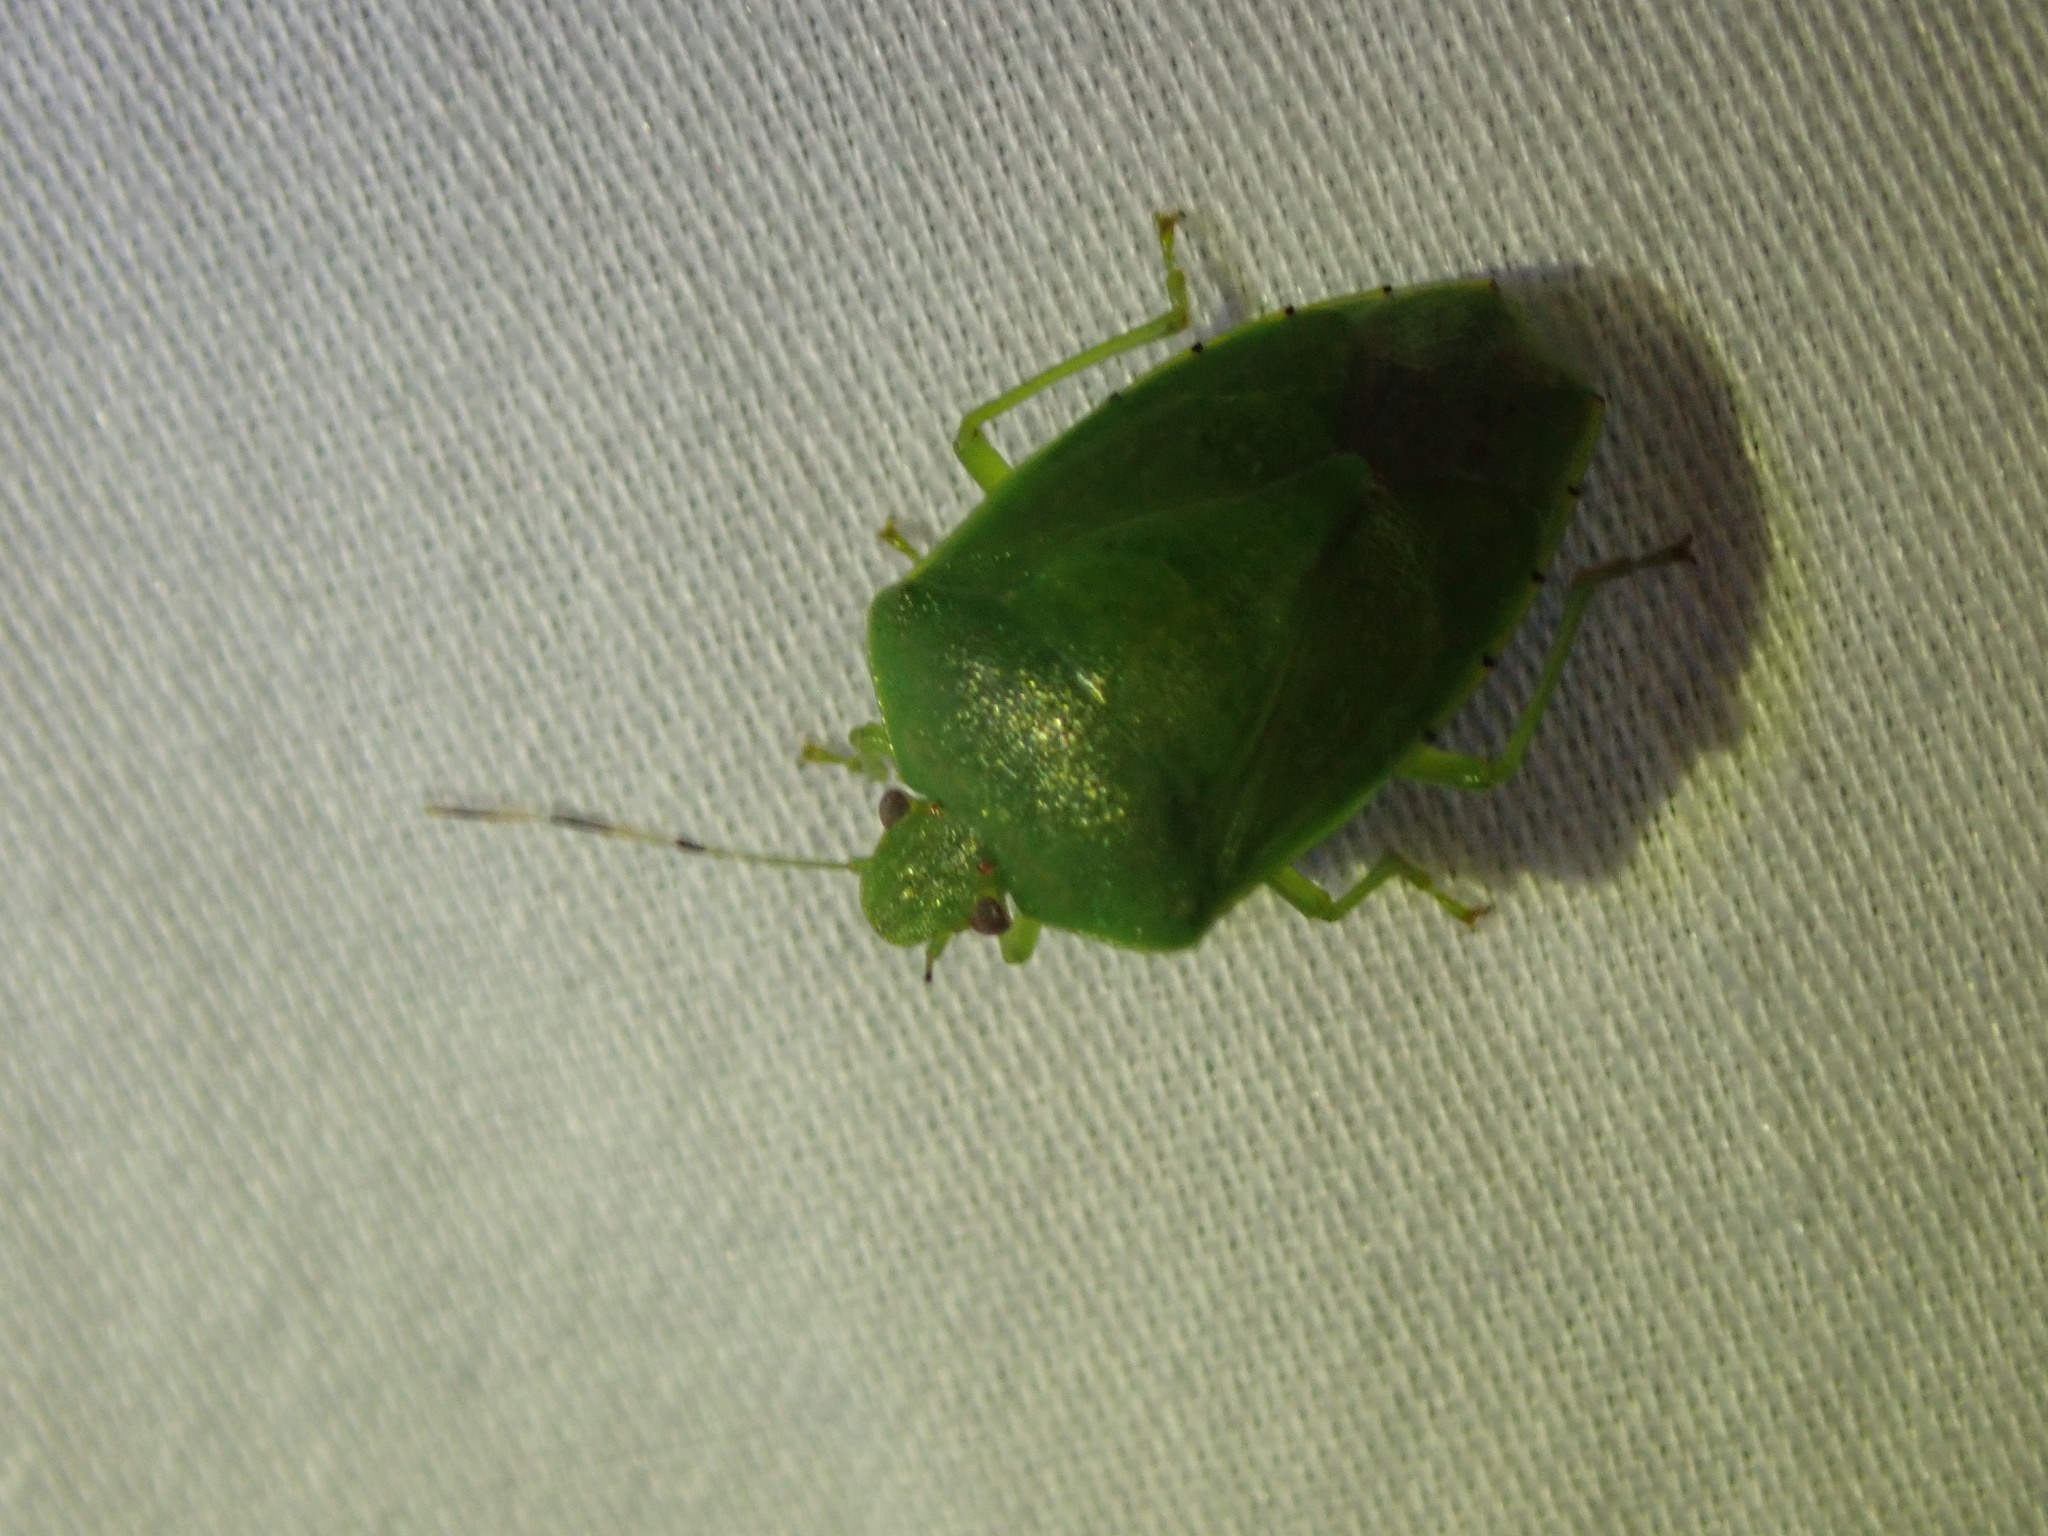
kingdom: Animalia
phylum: Arthropoda
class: Insecta
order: Hemiptera
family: Pentatomidae
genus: Chinavia
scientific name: Chinavia hilaris
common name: Green stink bug
